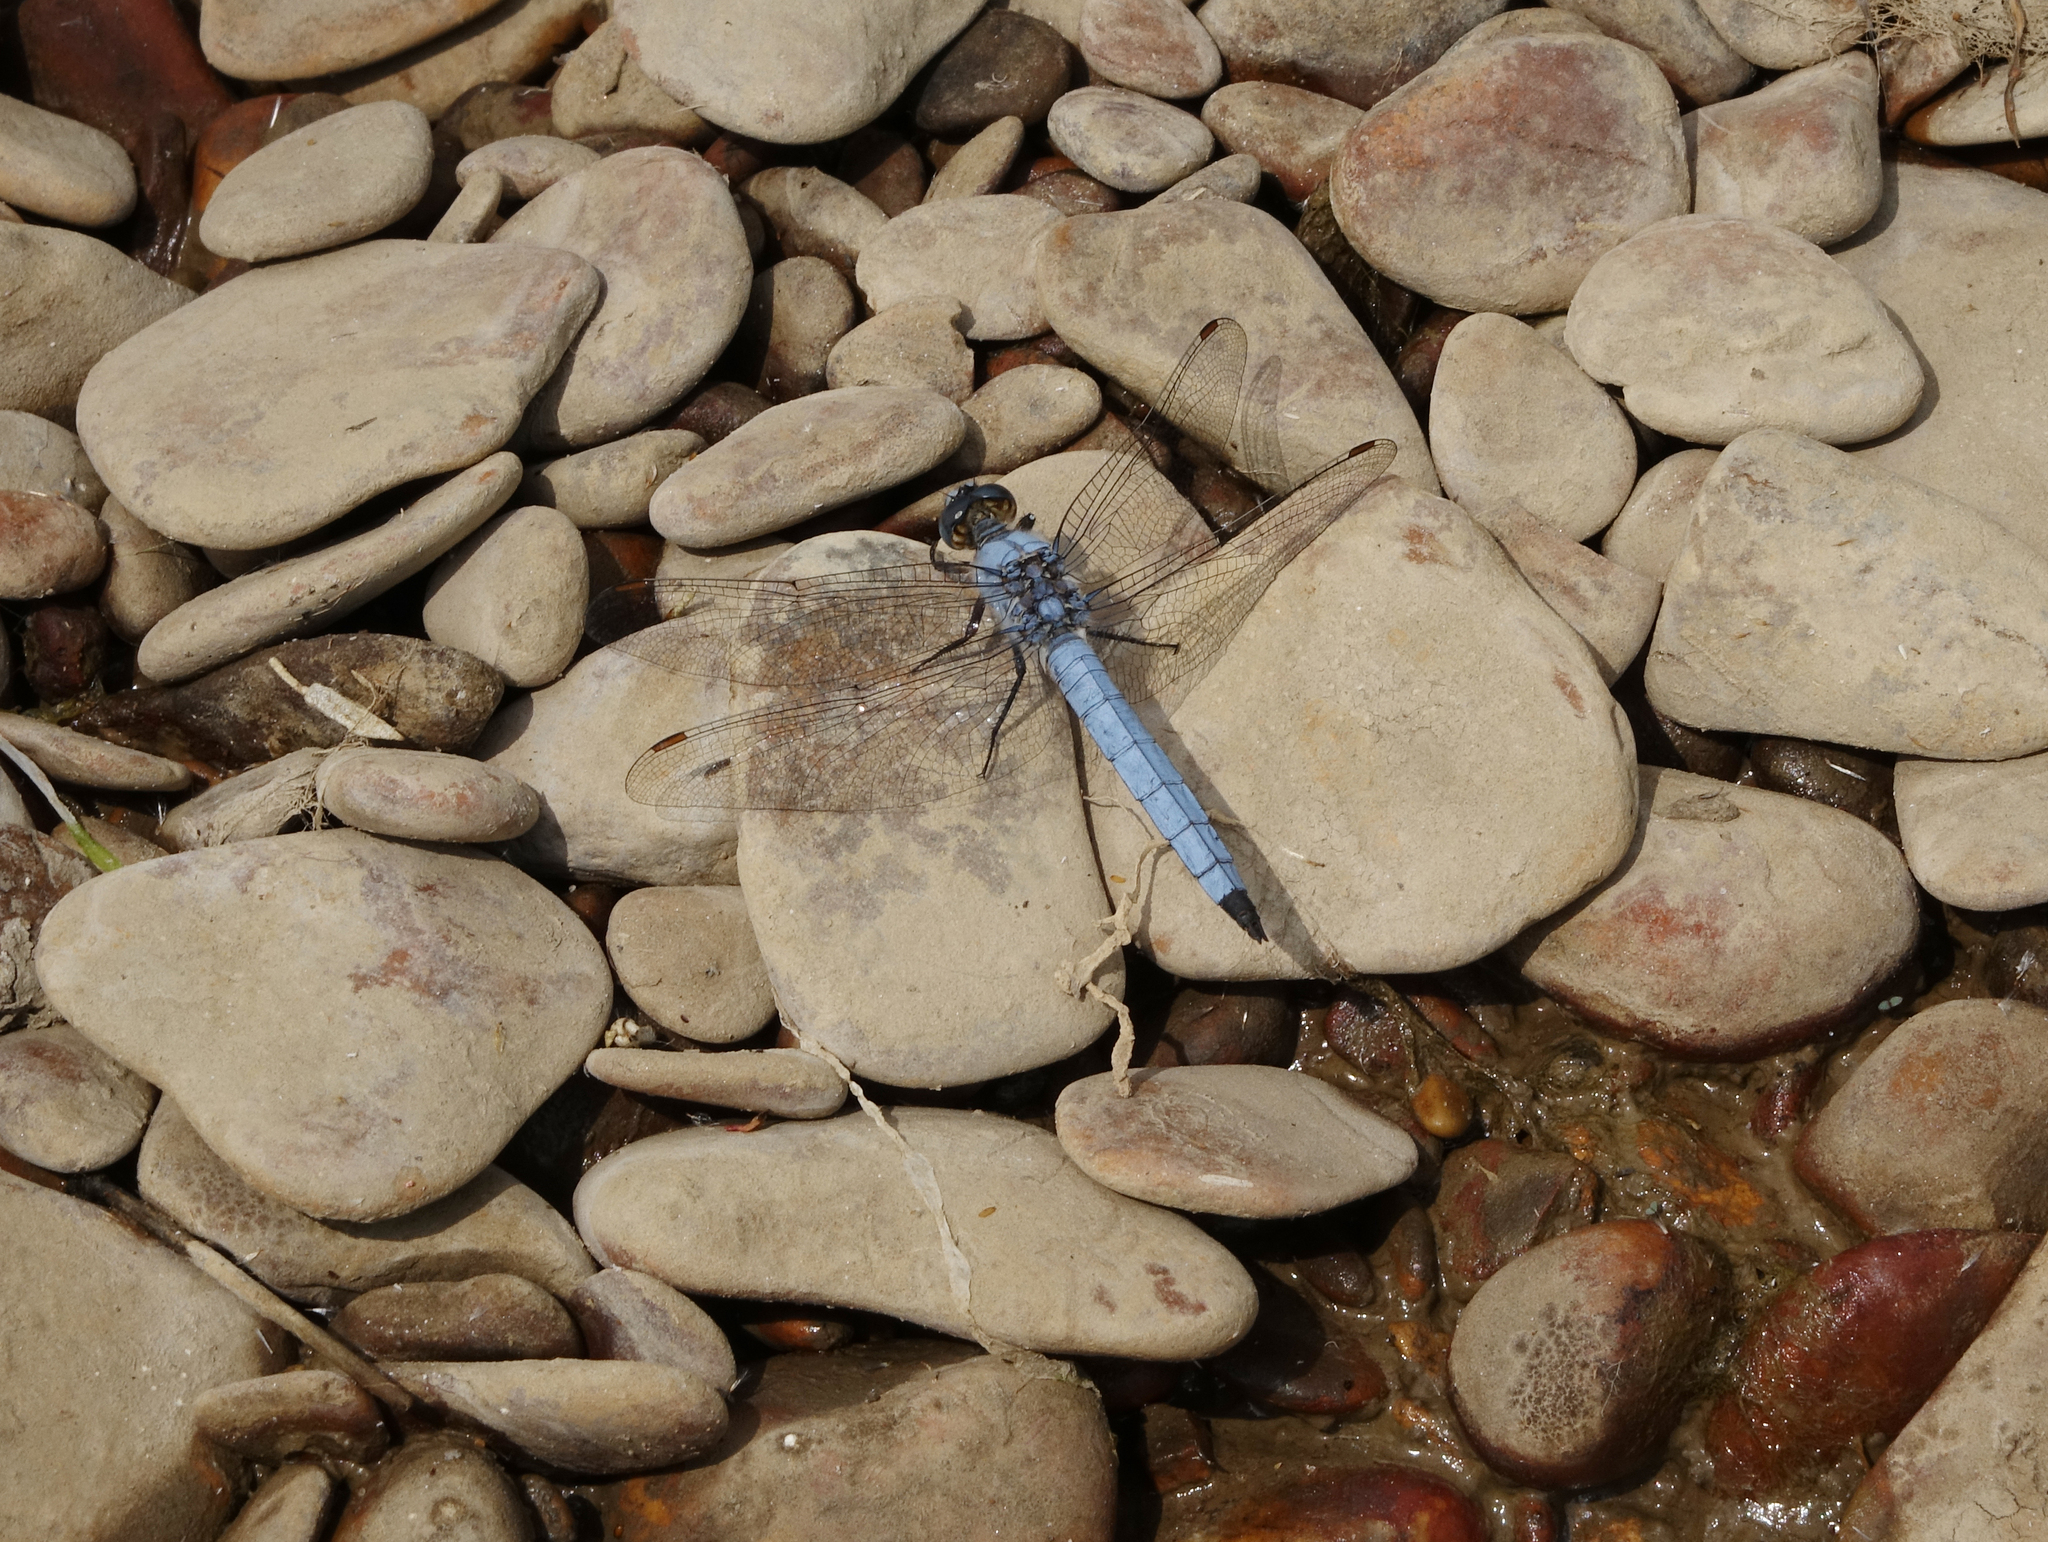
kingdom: Animalia
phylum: Arthropoda
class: Insecta
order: Odonata
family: Libellulidae
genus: Orthetrum
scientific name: Orthetrum brunneum
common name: Southern skimmer
